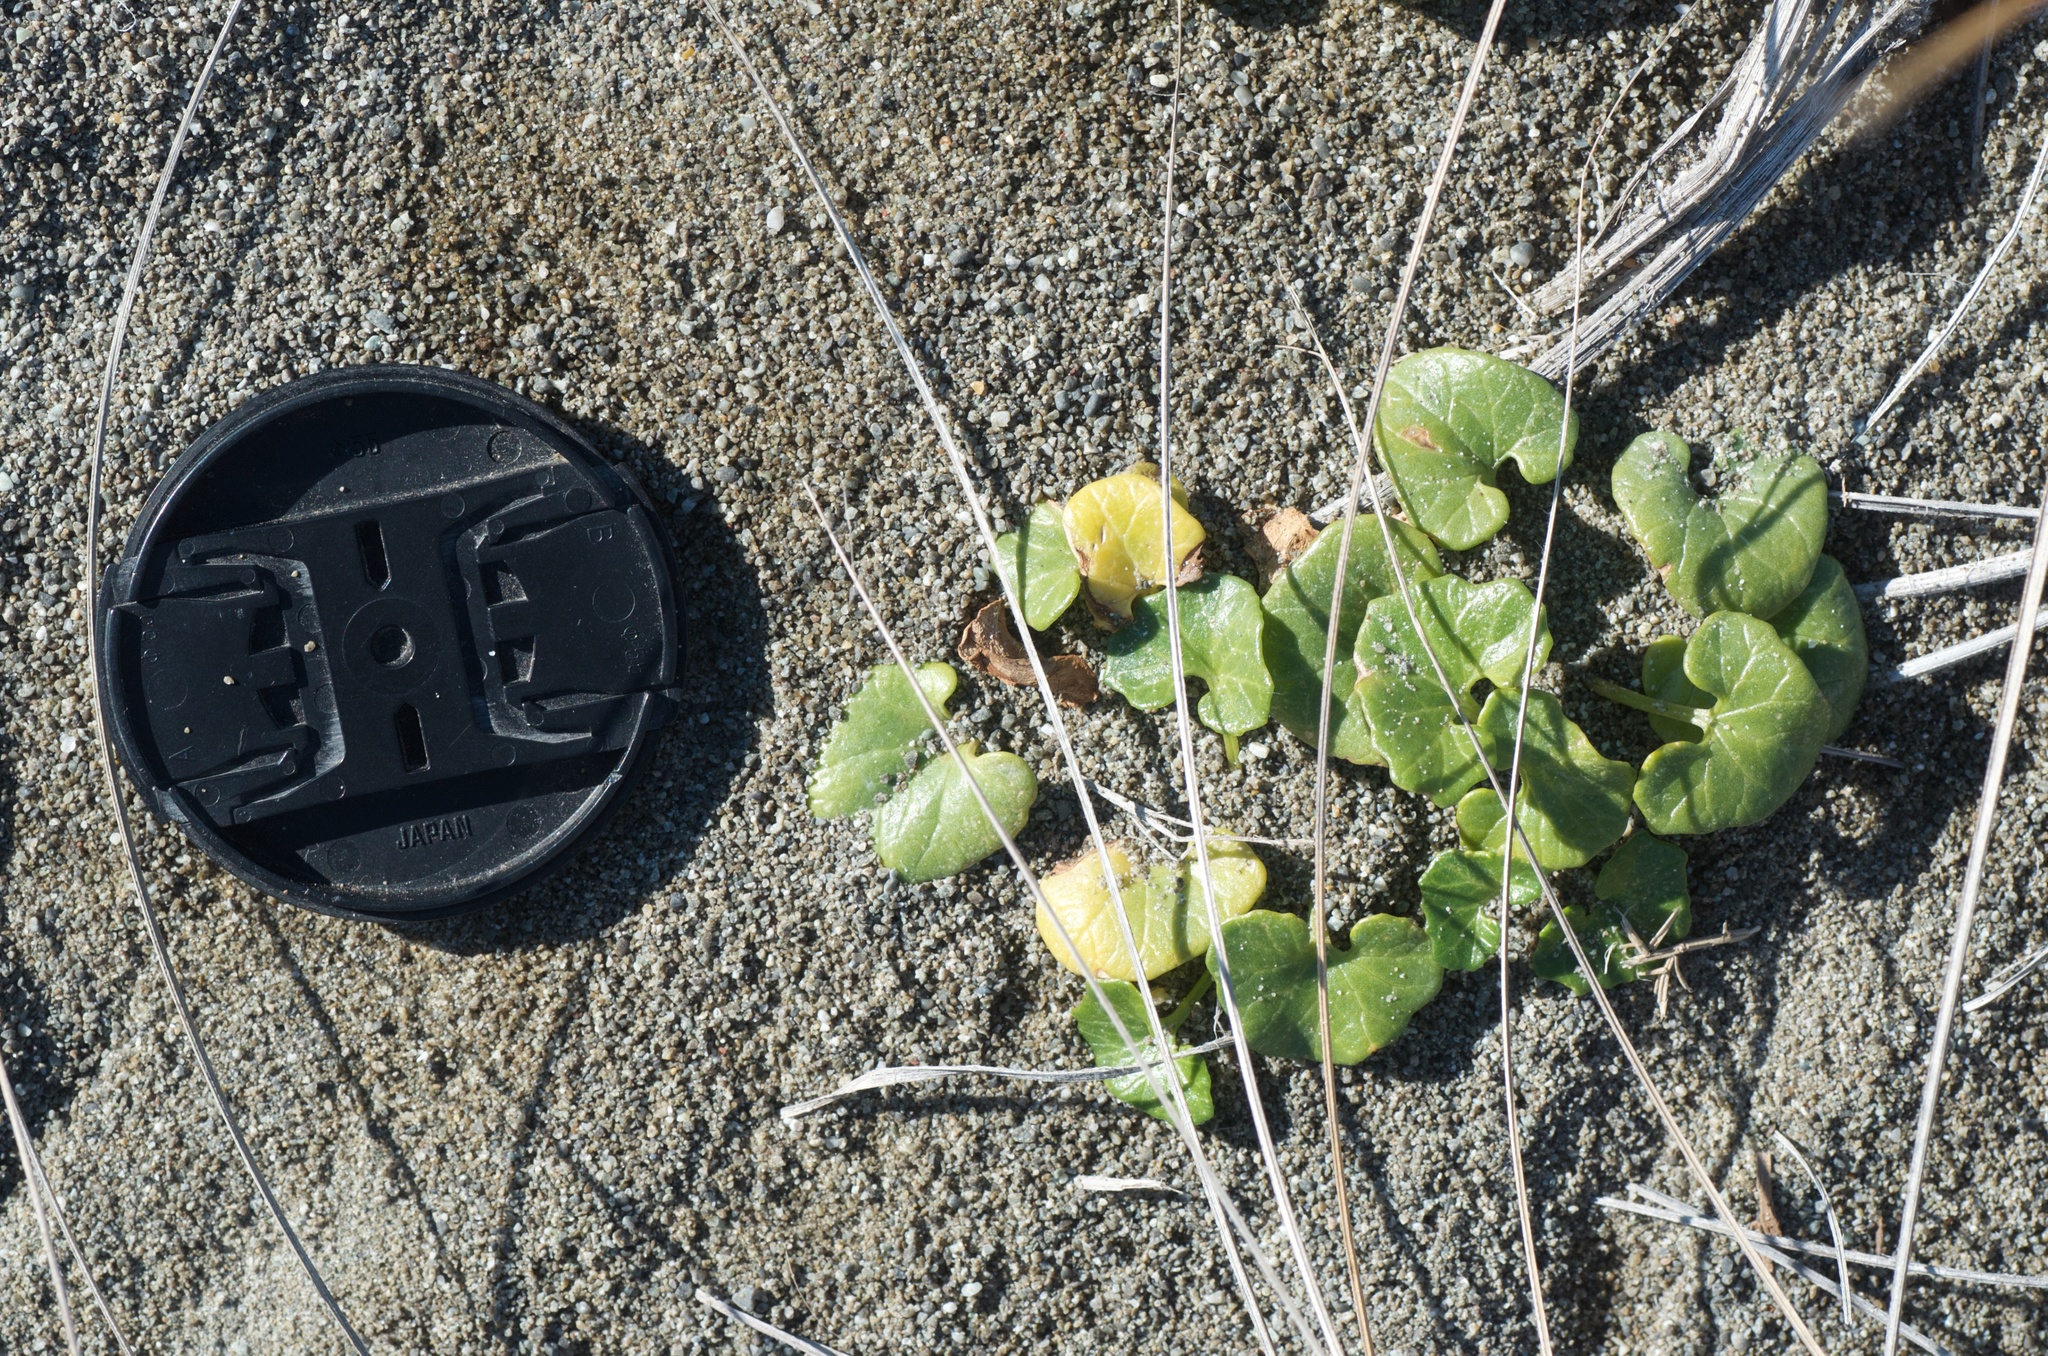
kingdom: Plantae
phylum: Tracheophyta
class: Magnoliopsida
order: Solanales
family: Convolvulaceae
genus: Calystegia
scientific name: Calystegia soldanella
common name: Sea bindweed
